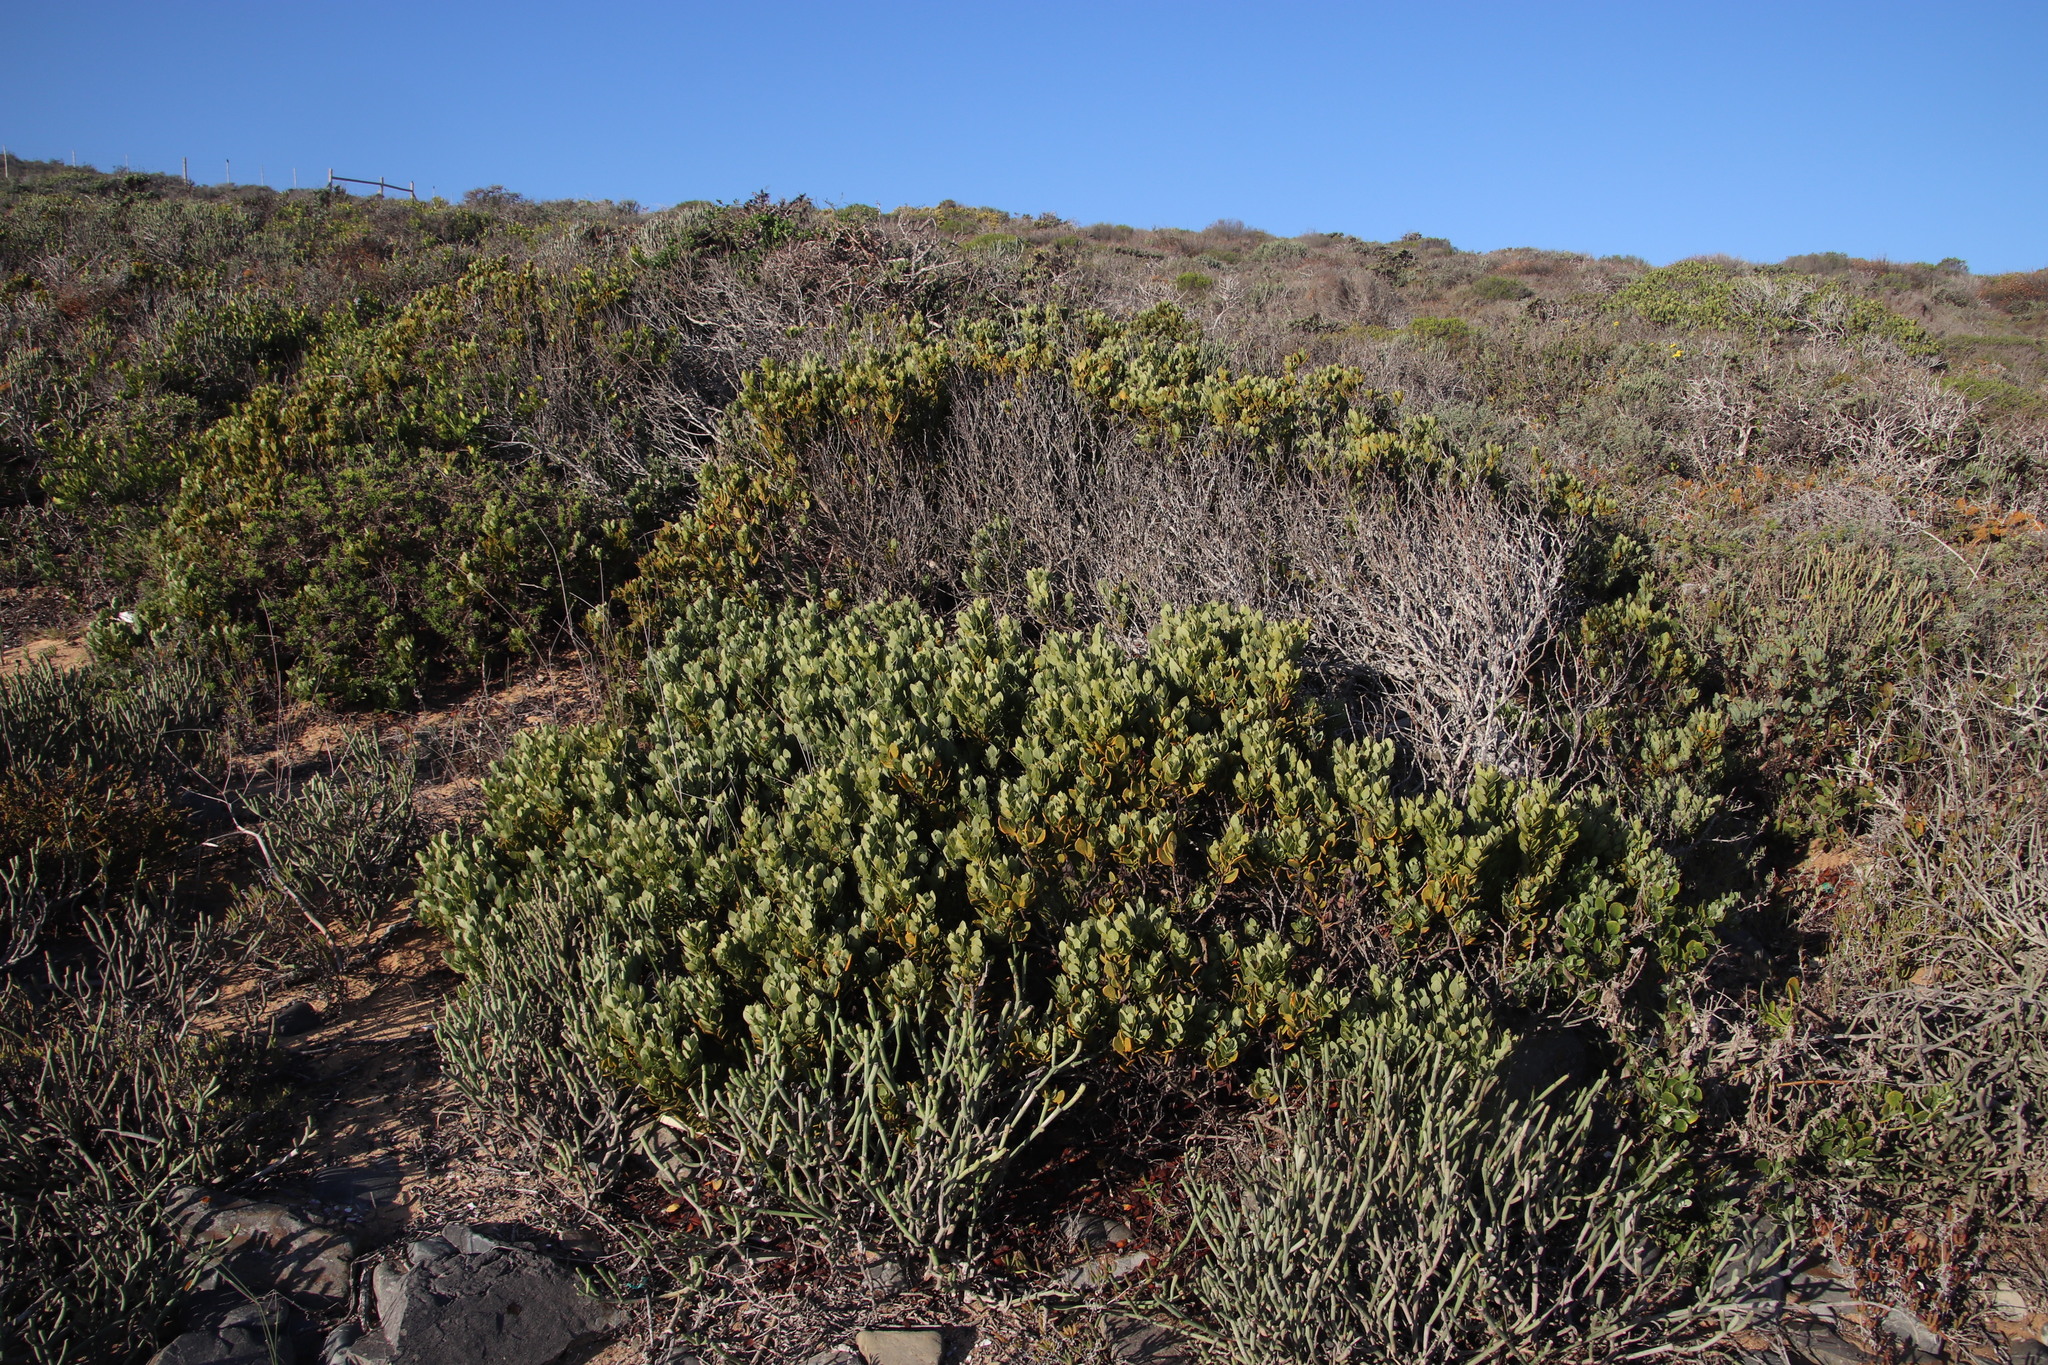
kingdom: Plantae
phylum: Tracheophyta
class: Magnoliopsida
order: Santalales
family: Santalaceae
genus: Osyris
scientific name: Osyris compressa
